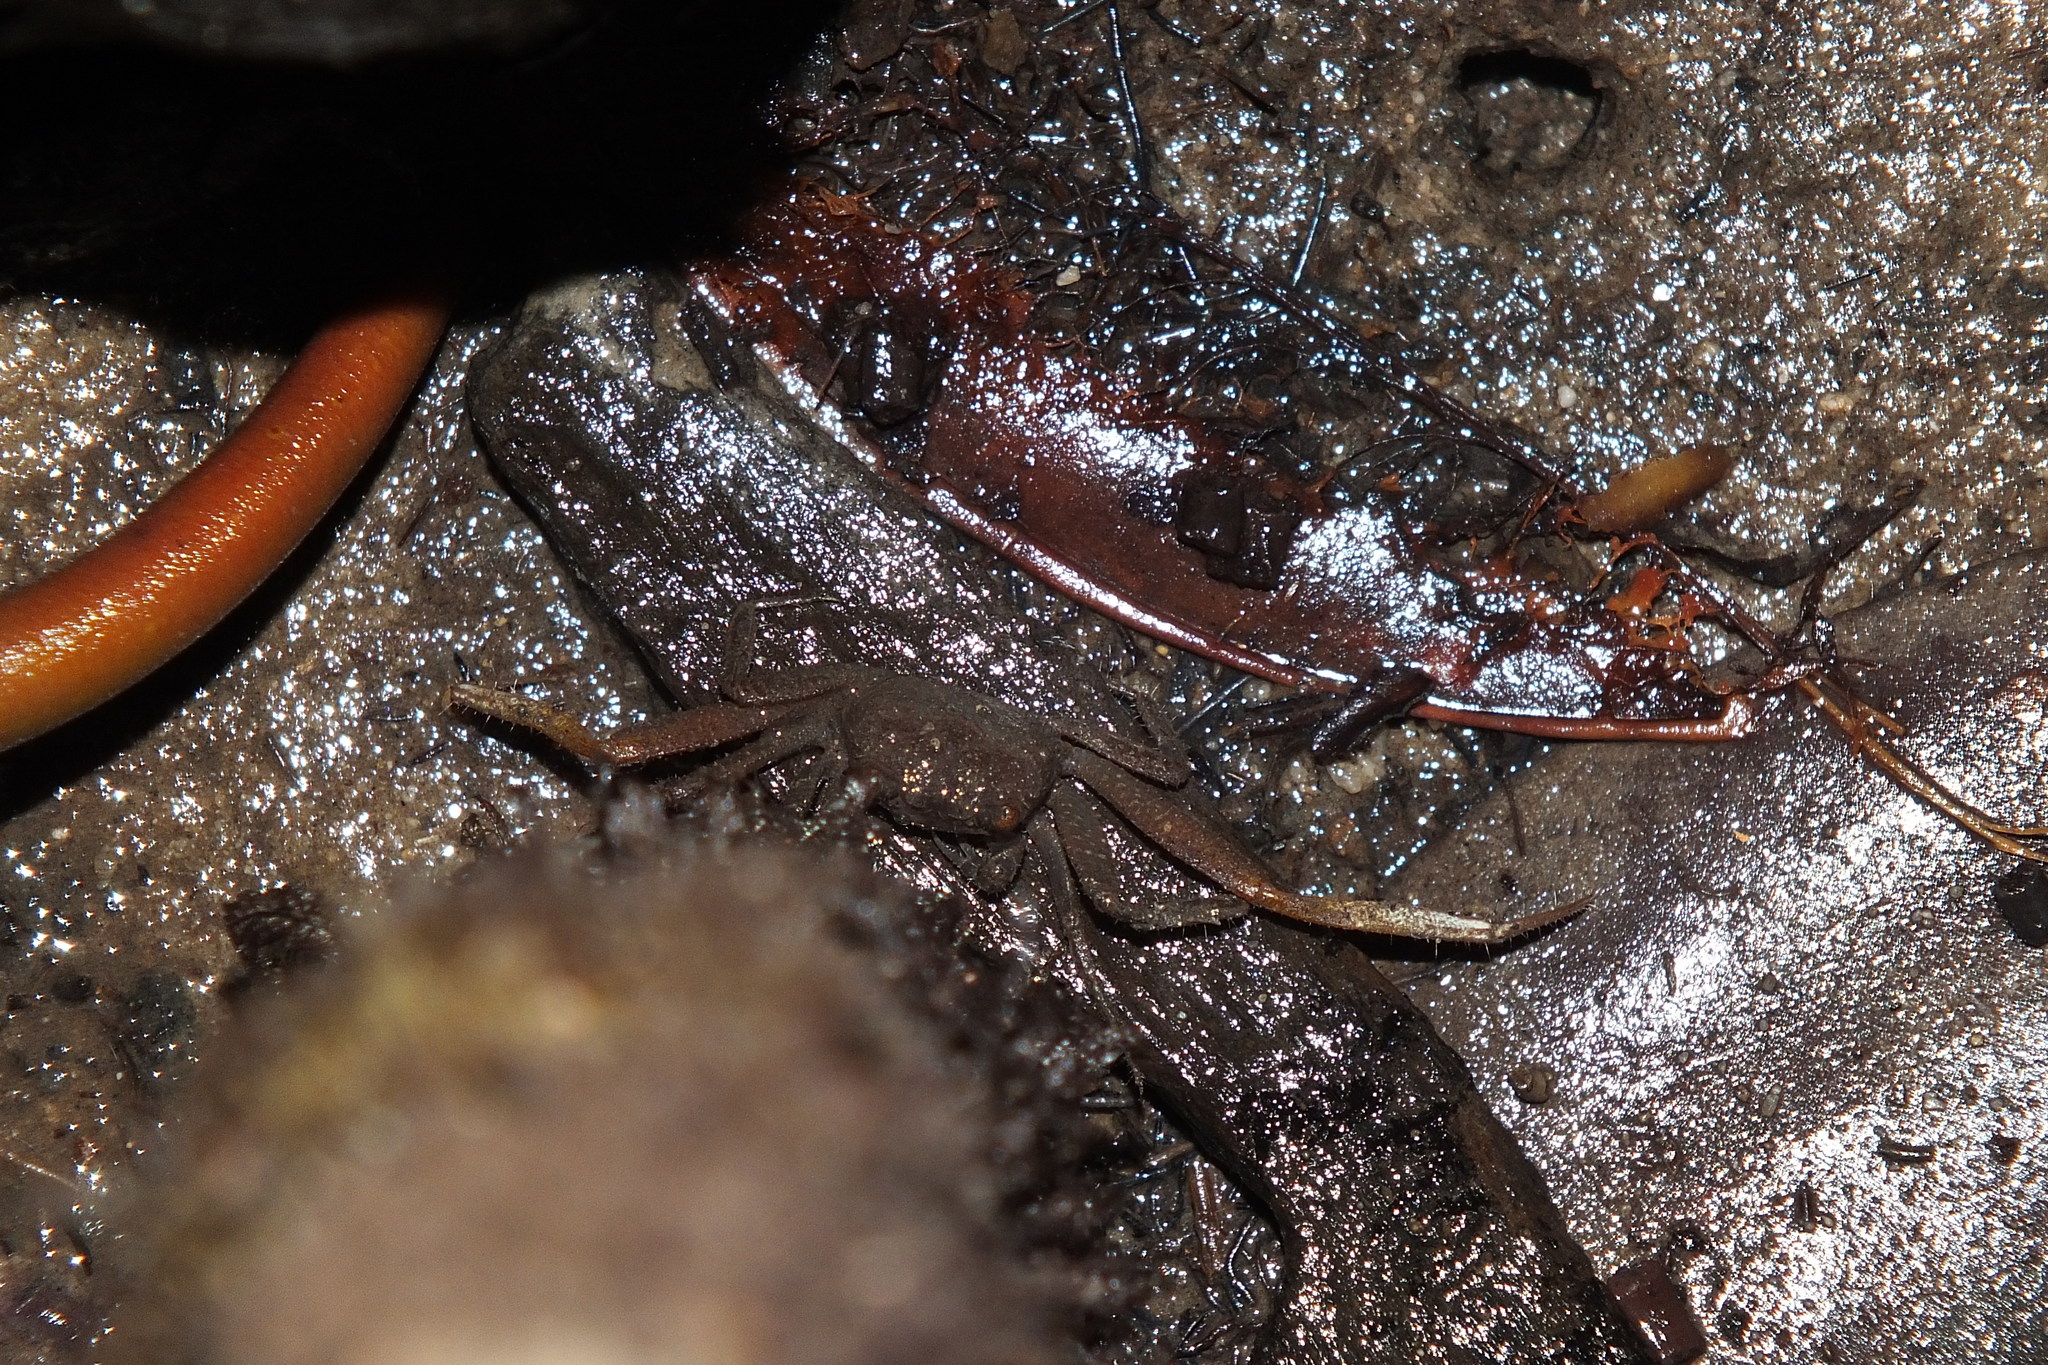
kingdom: Animalia
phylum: Arthropoda
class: Malacostraca
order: Decapoda
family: Sesarmidae
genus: Sesarmoides
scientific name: Sesarmoides borneensis
